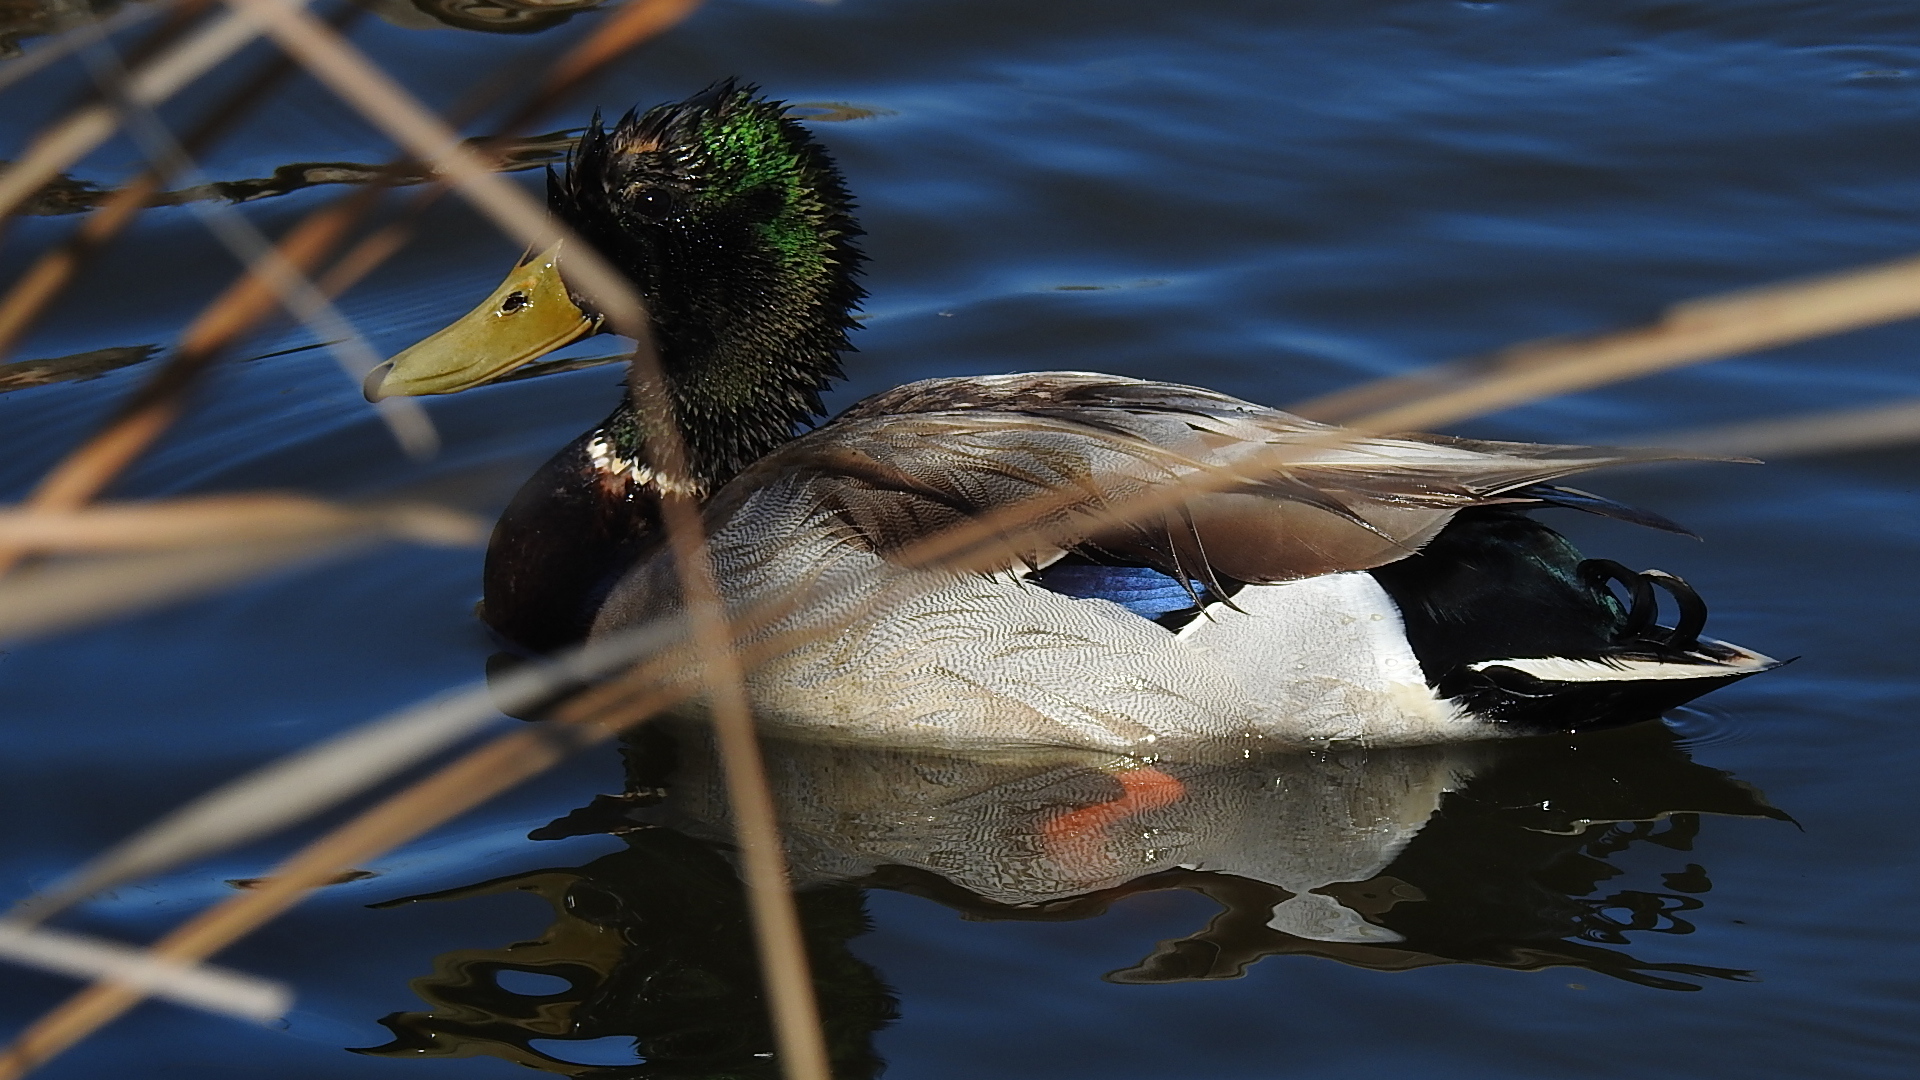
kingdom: Animalia
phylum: Chordata
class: Aves
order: Anseriformes
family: Anatidae
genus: Anas
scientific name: Anas platyrhynchos
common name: Mallard
